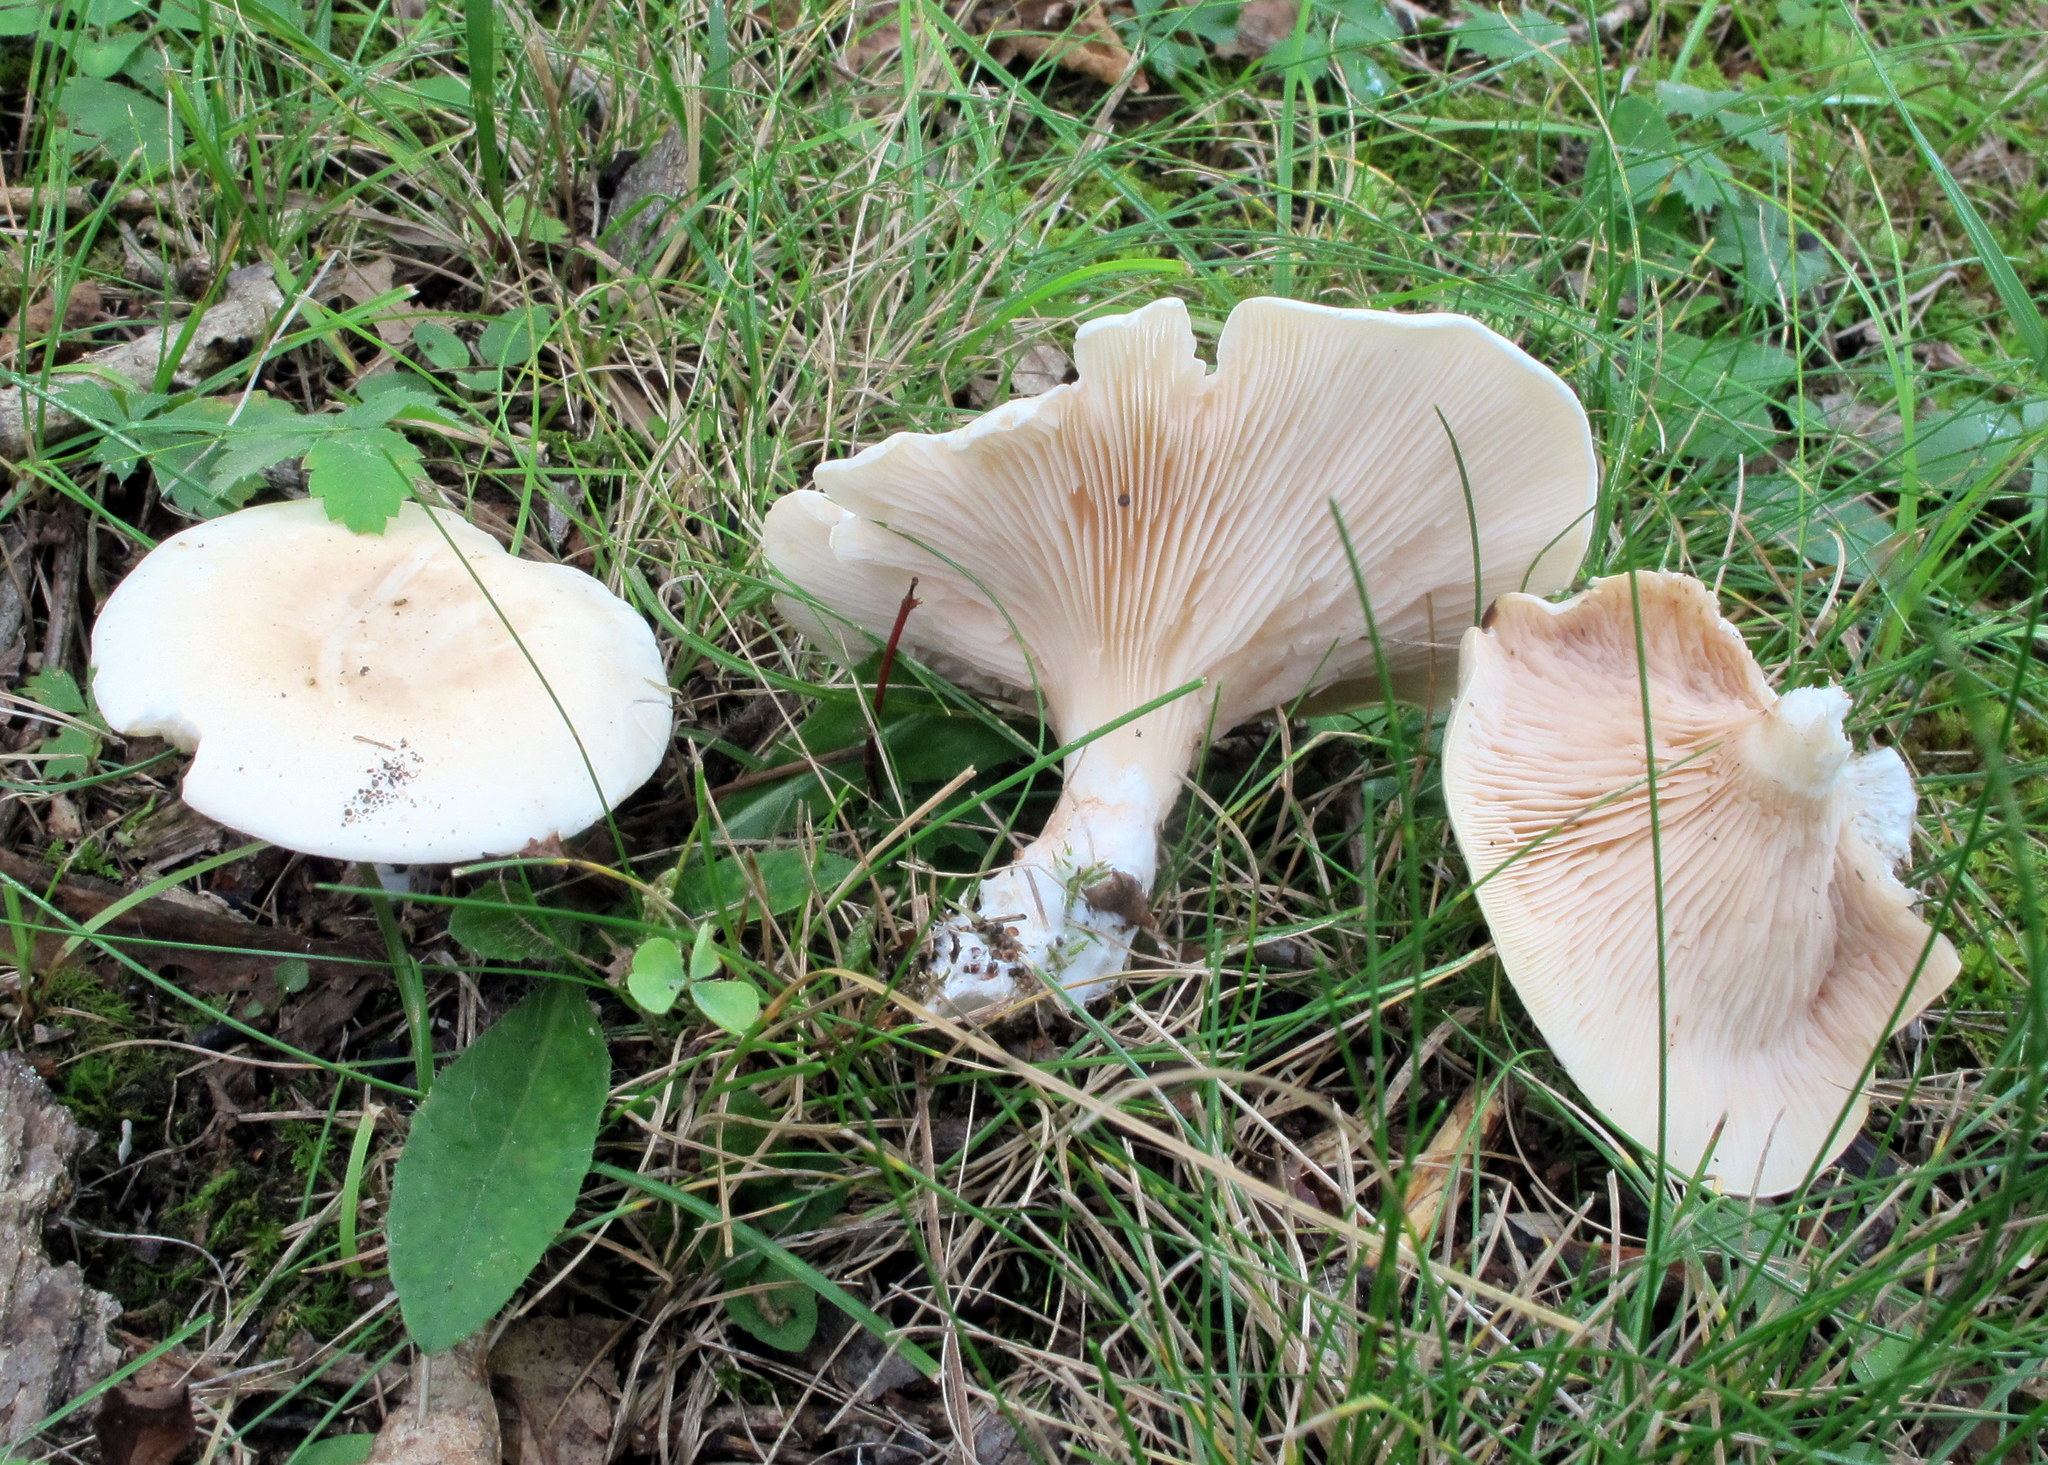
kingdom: Fungi
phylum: Basidiomycota
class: Agaricomycetes
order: Agaricales
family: Entolomataceae
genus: Clitopilus
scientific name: Clitopilus prunulus
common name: The miller
